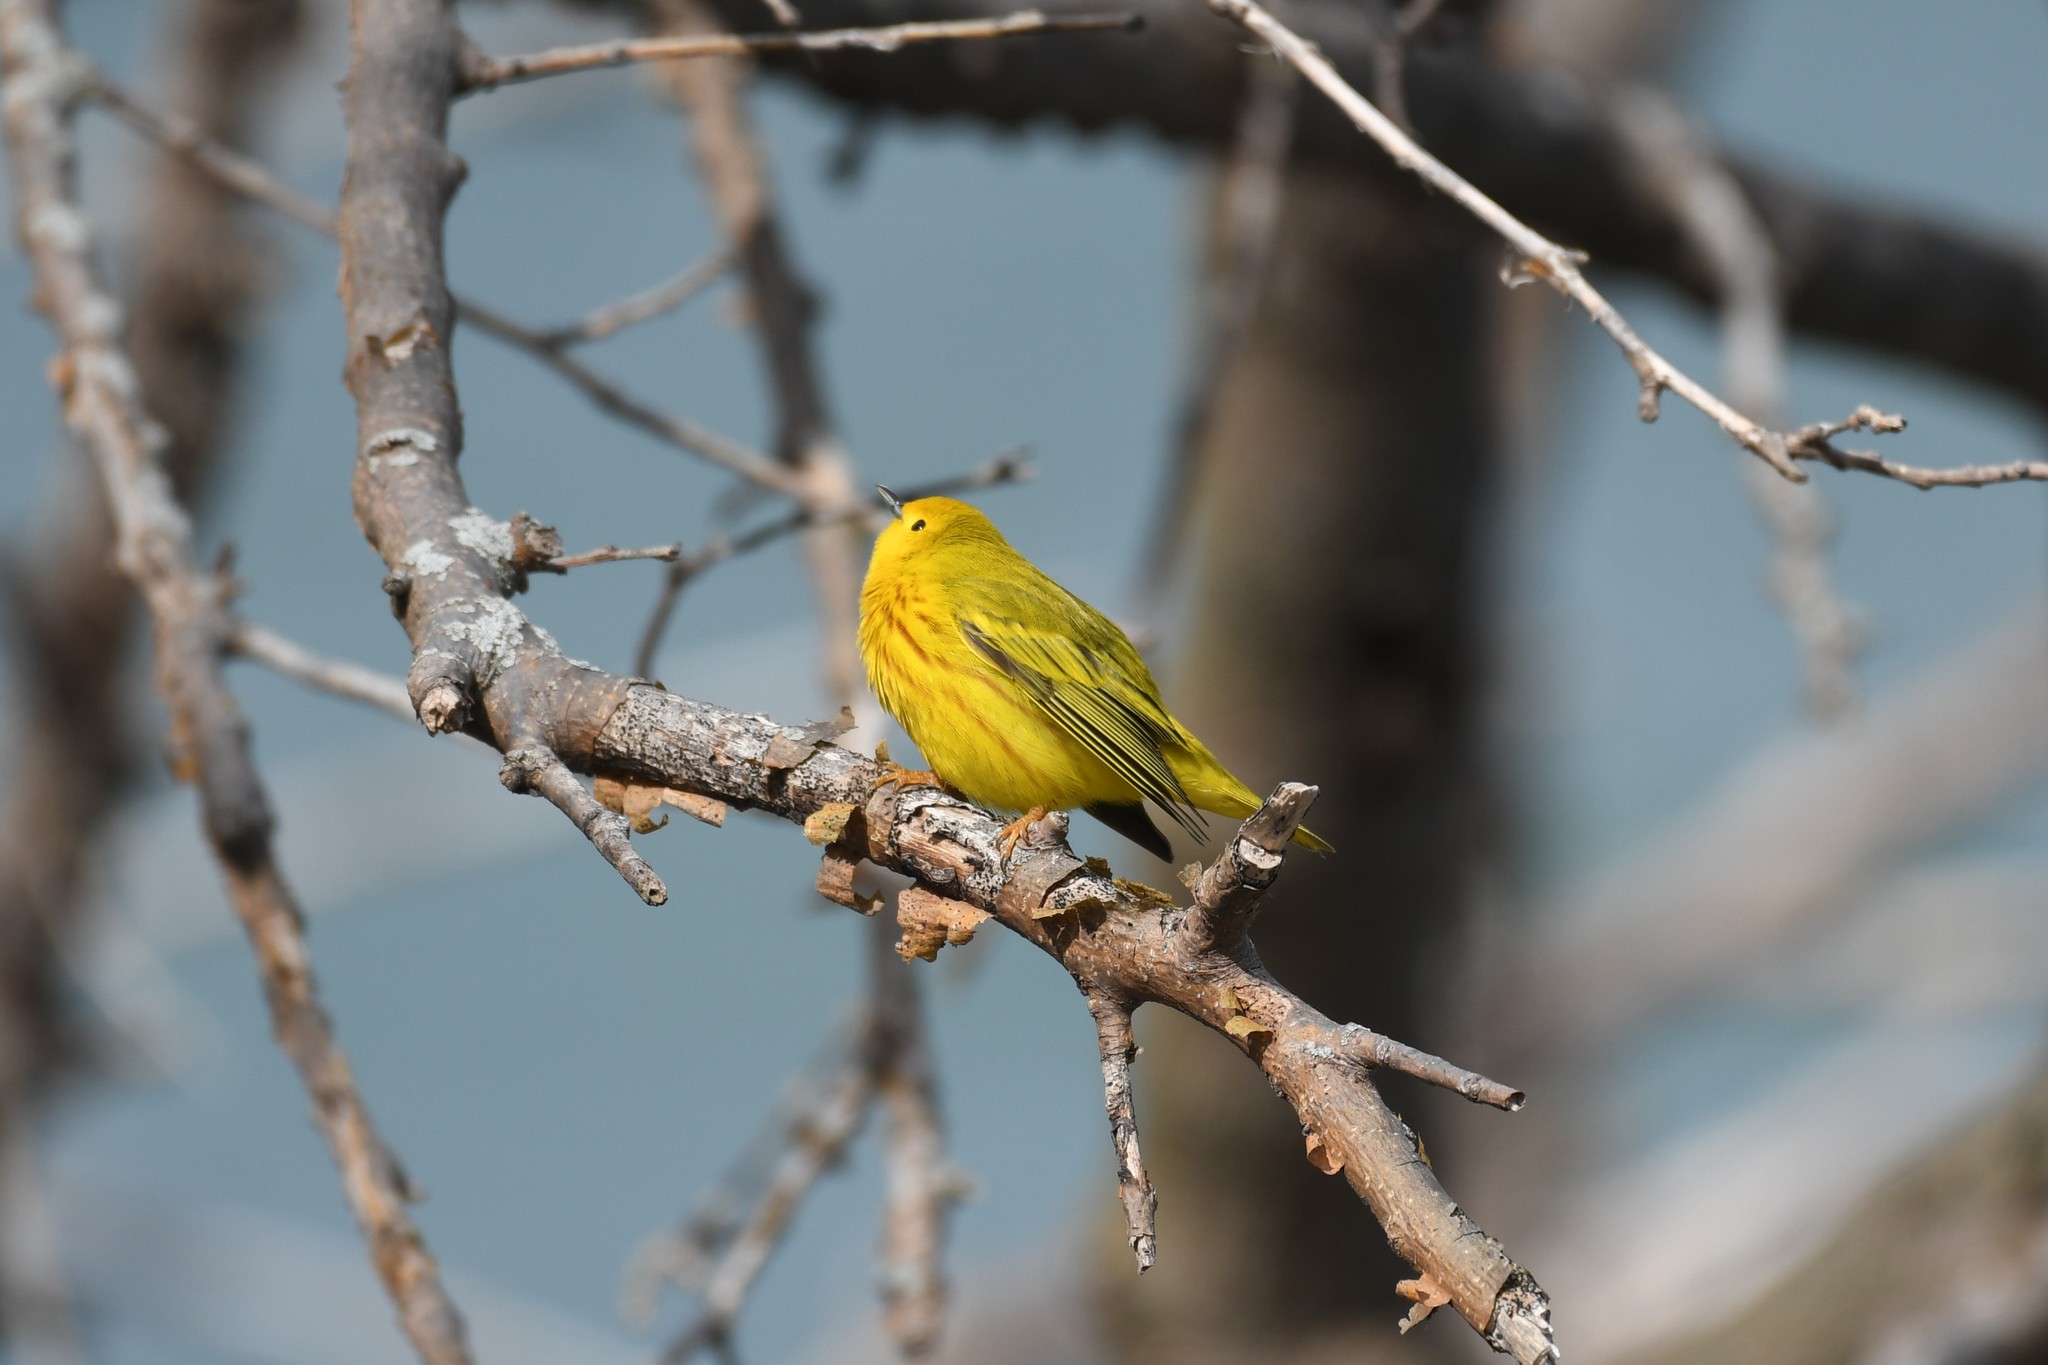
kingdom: Animalia
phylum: Chordata
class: Aves
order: Passeriformes
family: Parulidae
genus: Setophaga
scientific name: Setophaga petechia
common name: Yellow warbler
